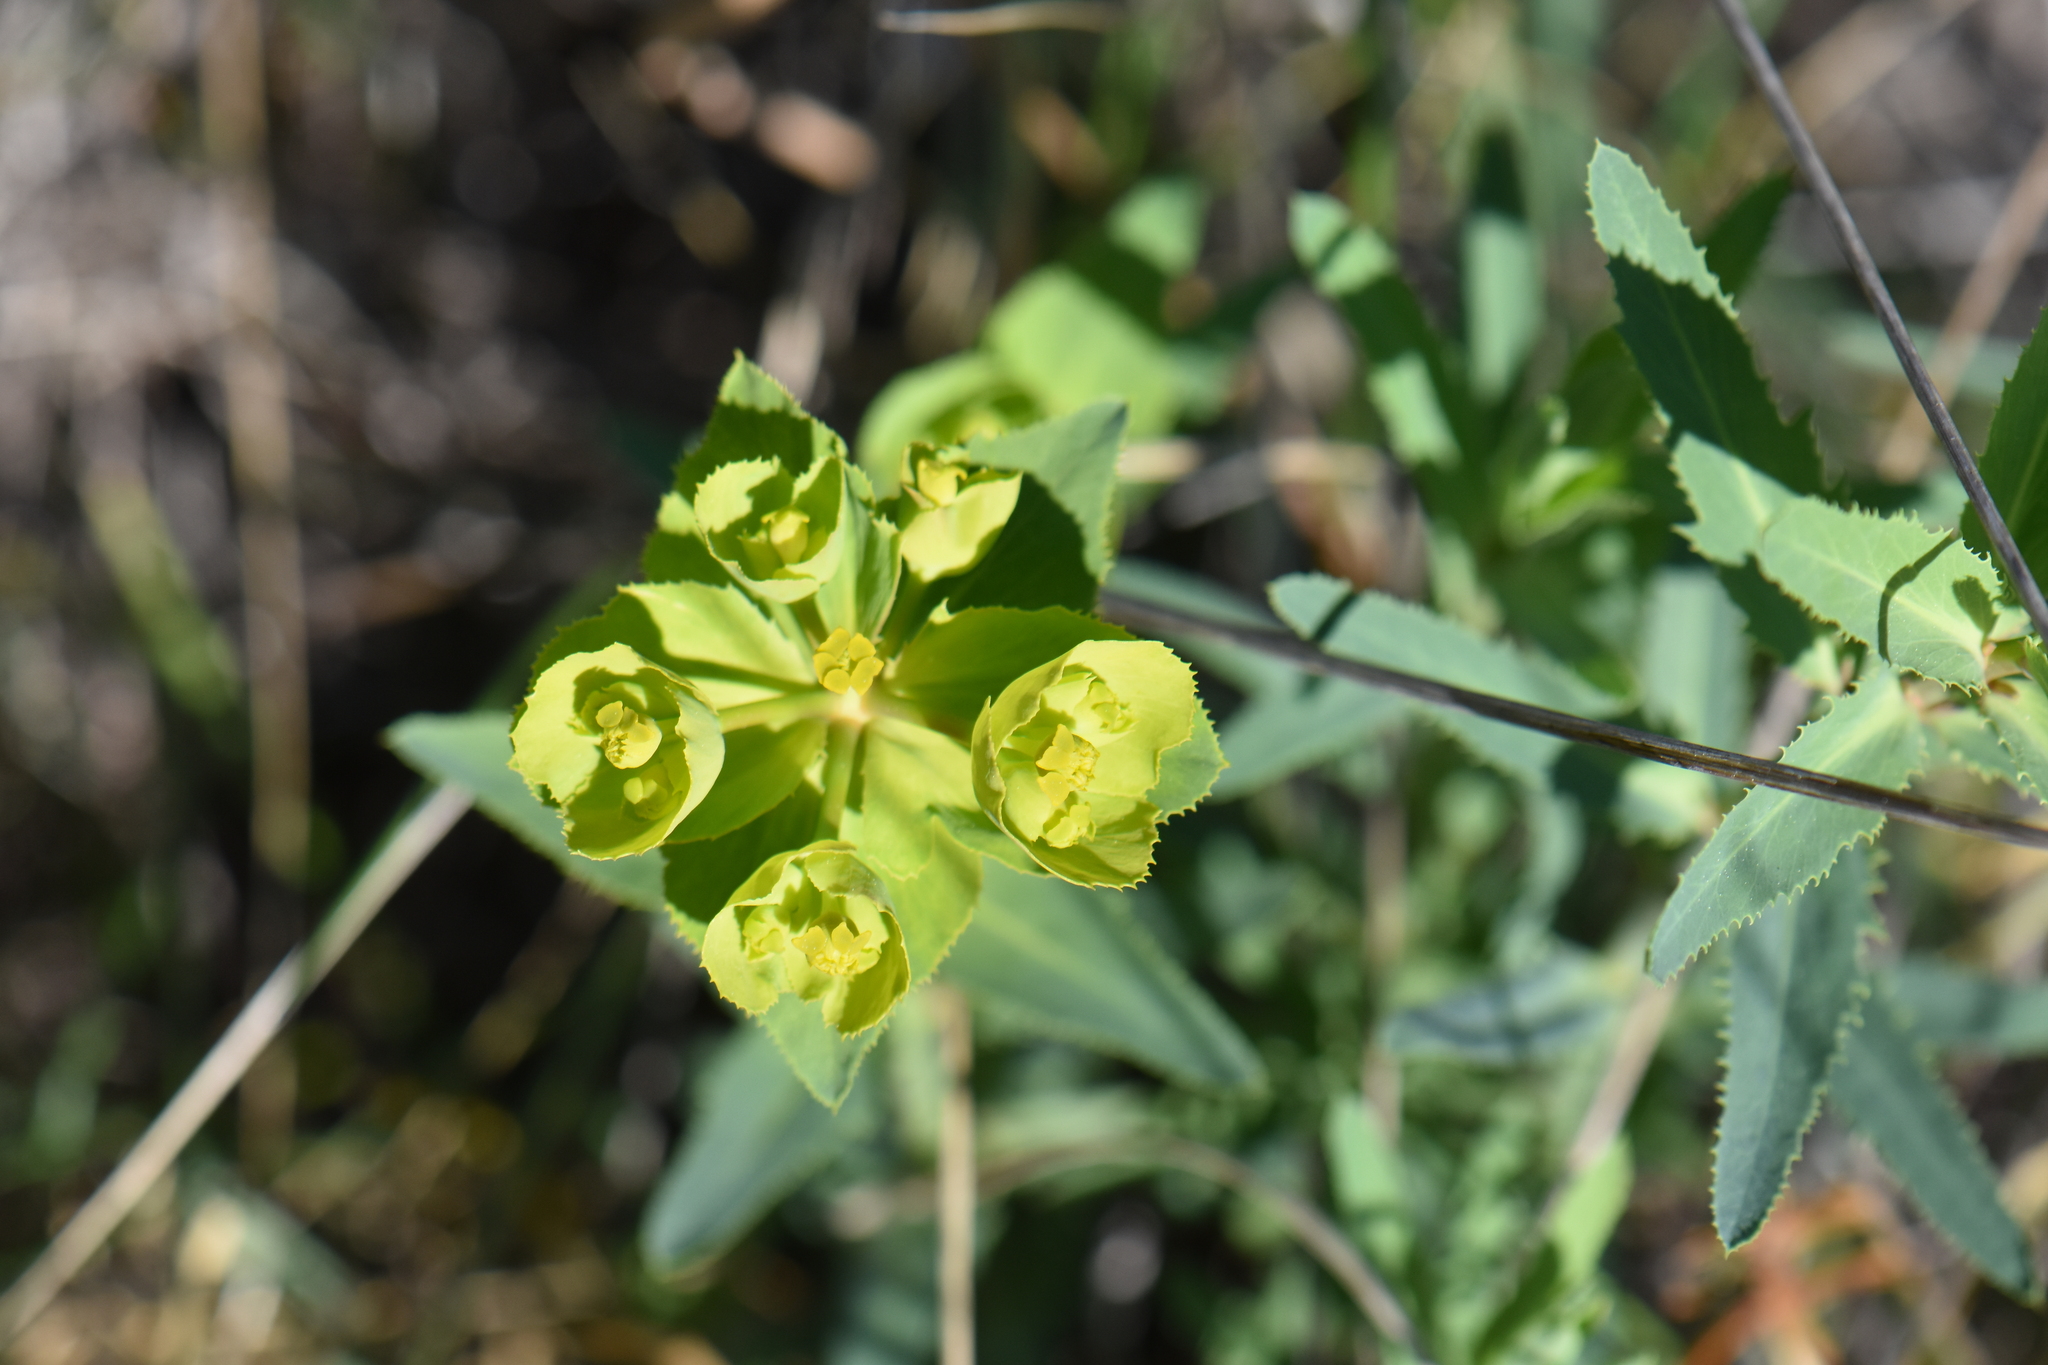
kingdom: Plantae
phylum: Tracheophyta
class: Magnoliopsida
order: Malpighiales
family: Euphorbiaceae
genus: Euphorbia
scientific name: Euphorbia serrata
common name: Serrate spurge
